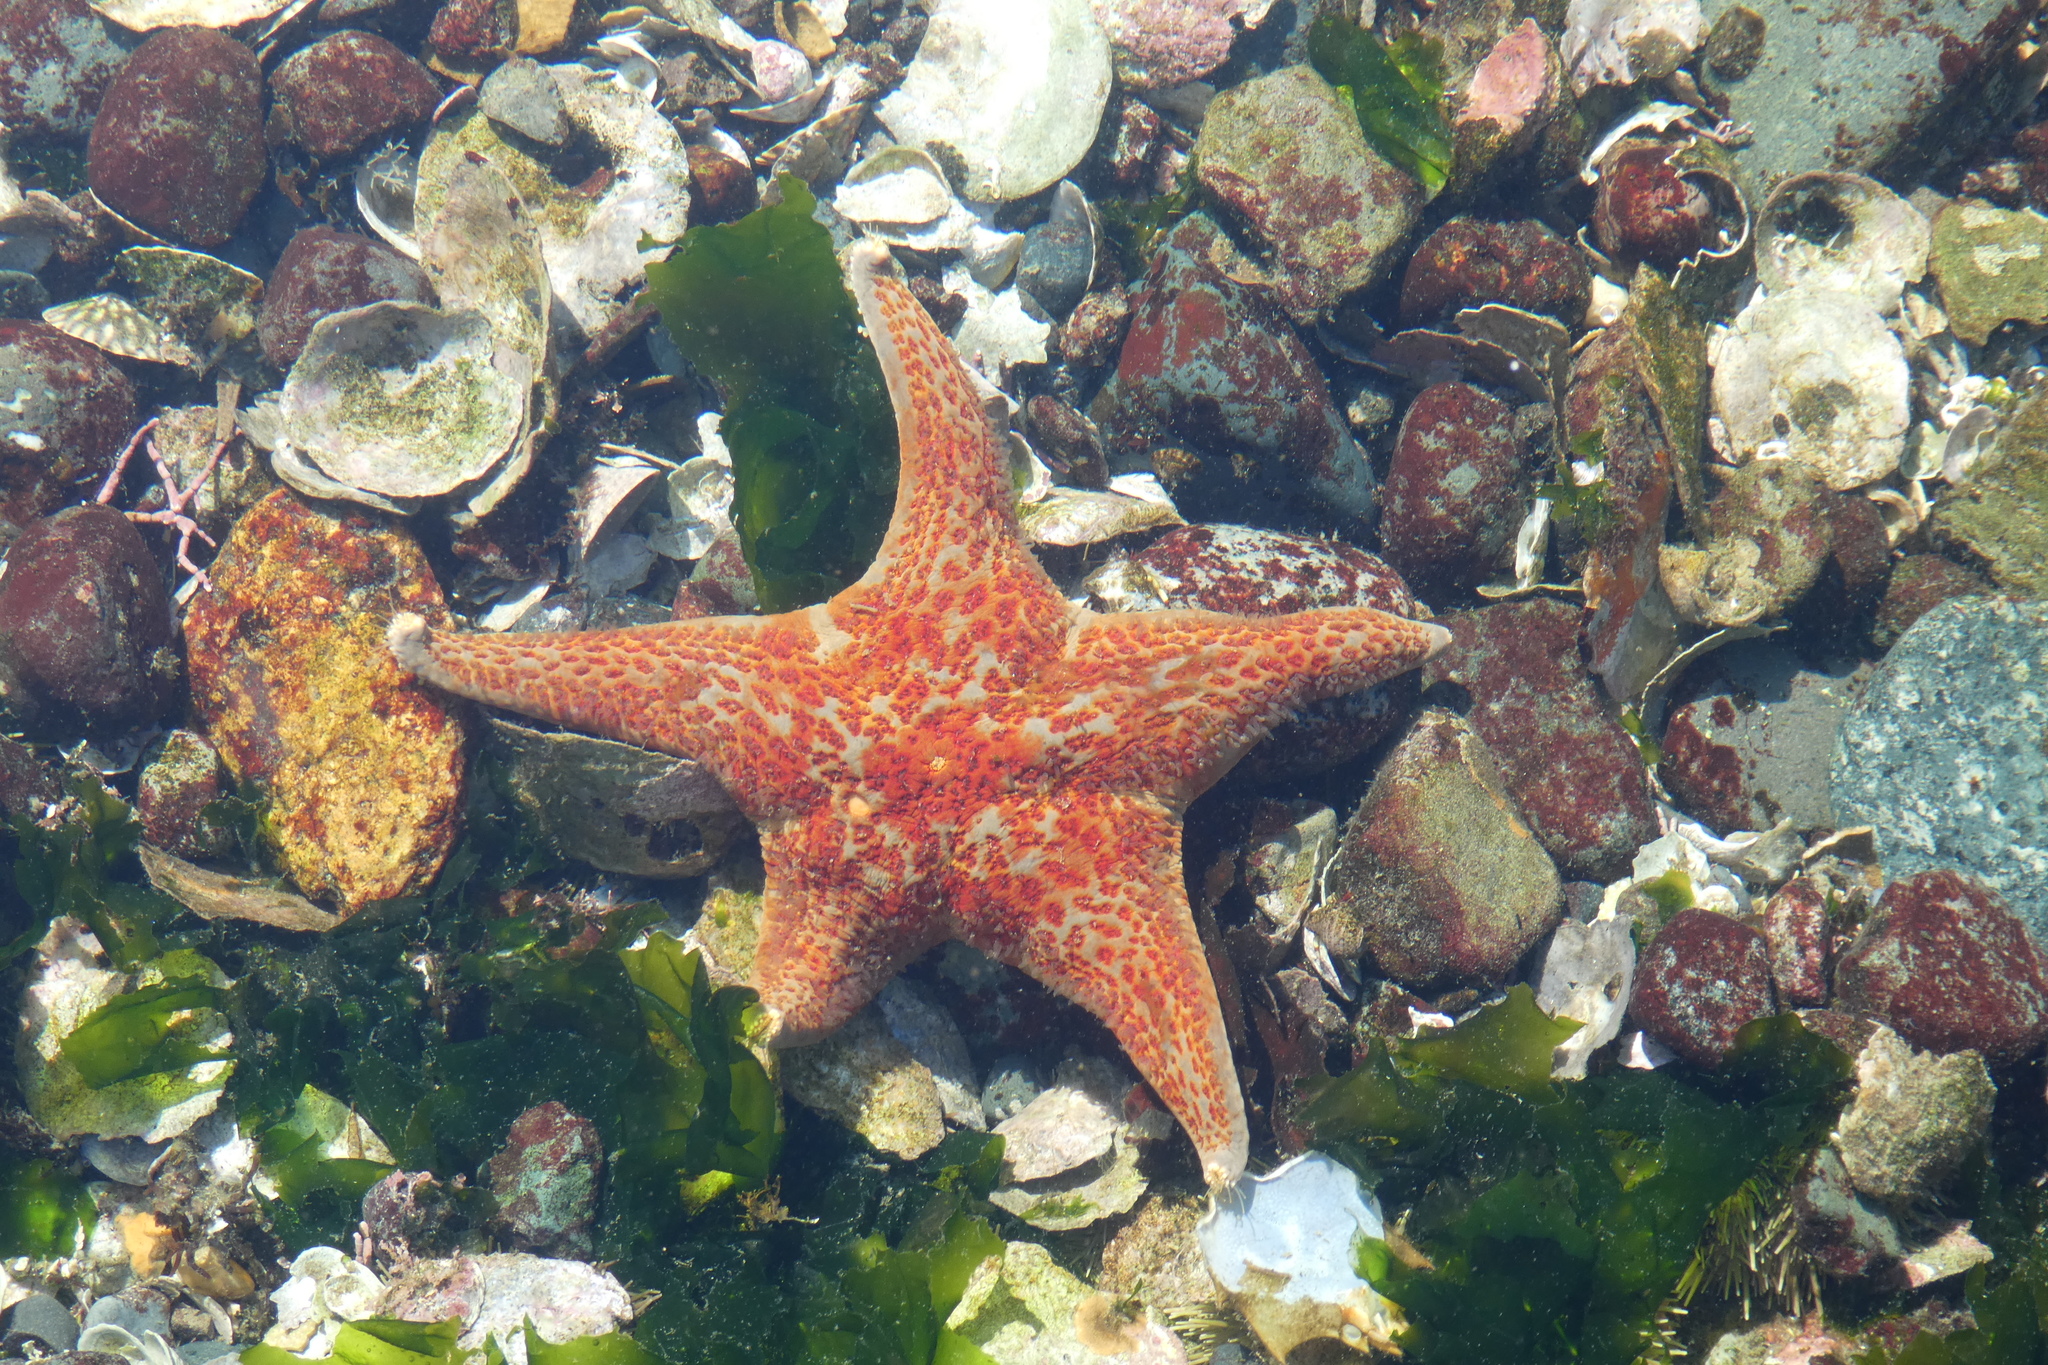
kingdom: Animalia
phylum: Echinodermata
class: Asteroidea
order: Valvatida
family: Asteropseidae
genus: Dermasterias
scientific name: Dermasterias imbricata
